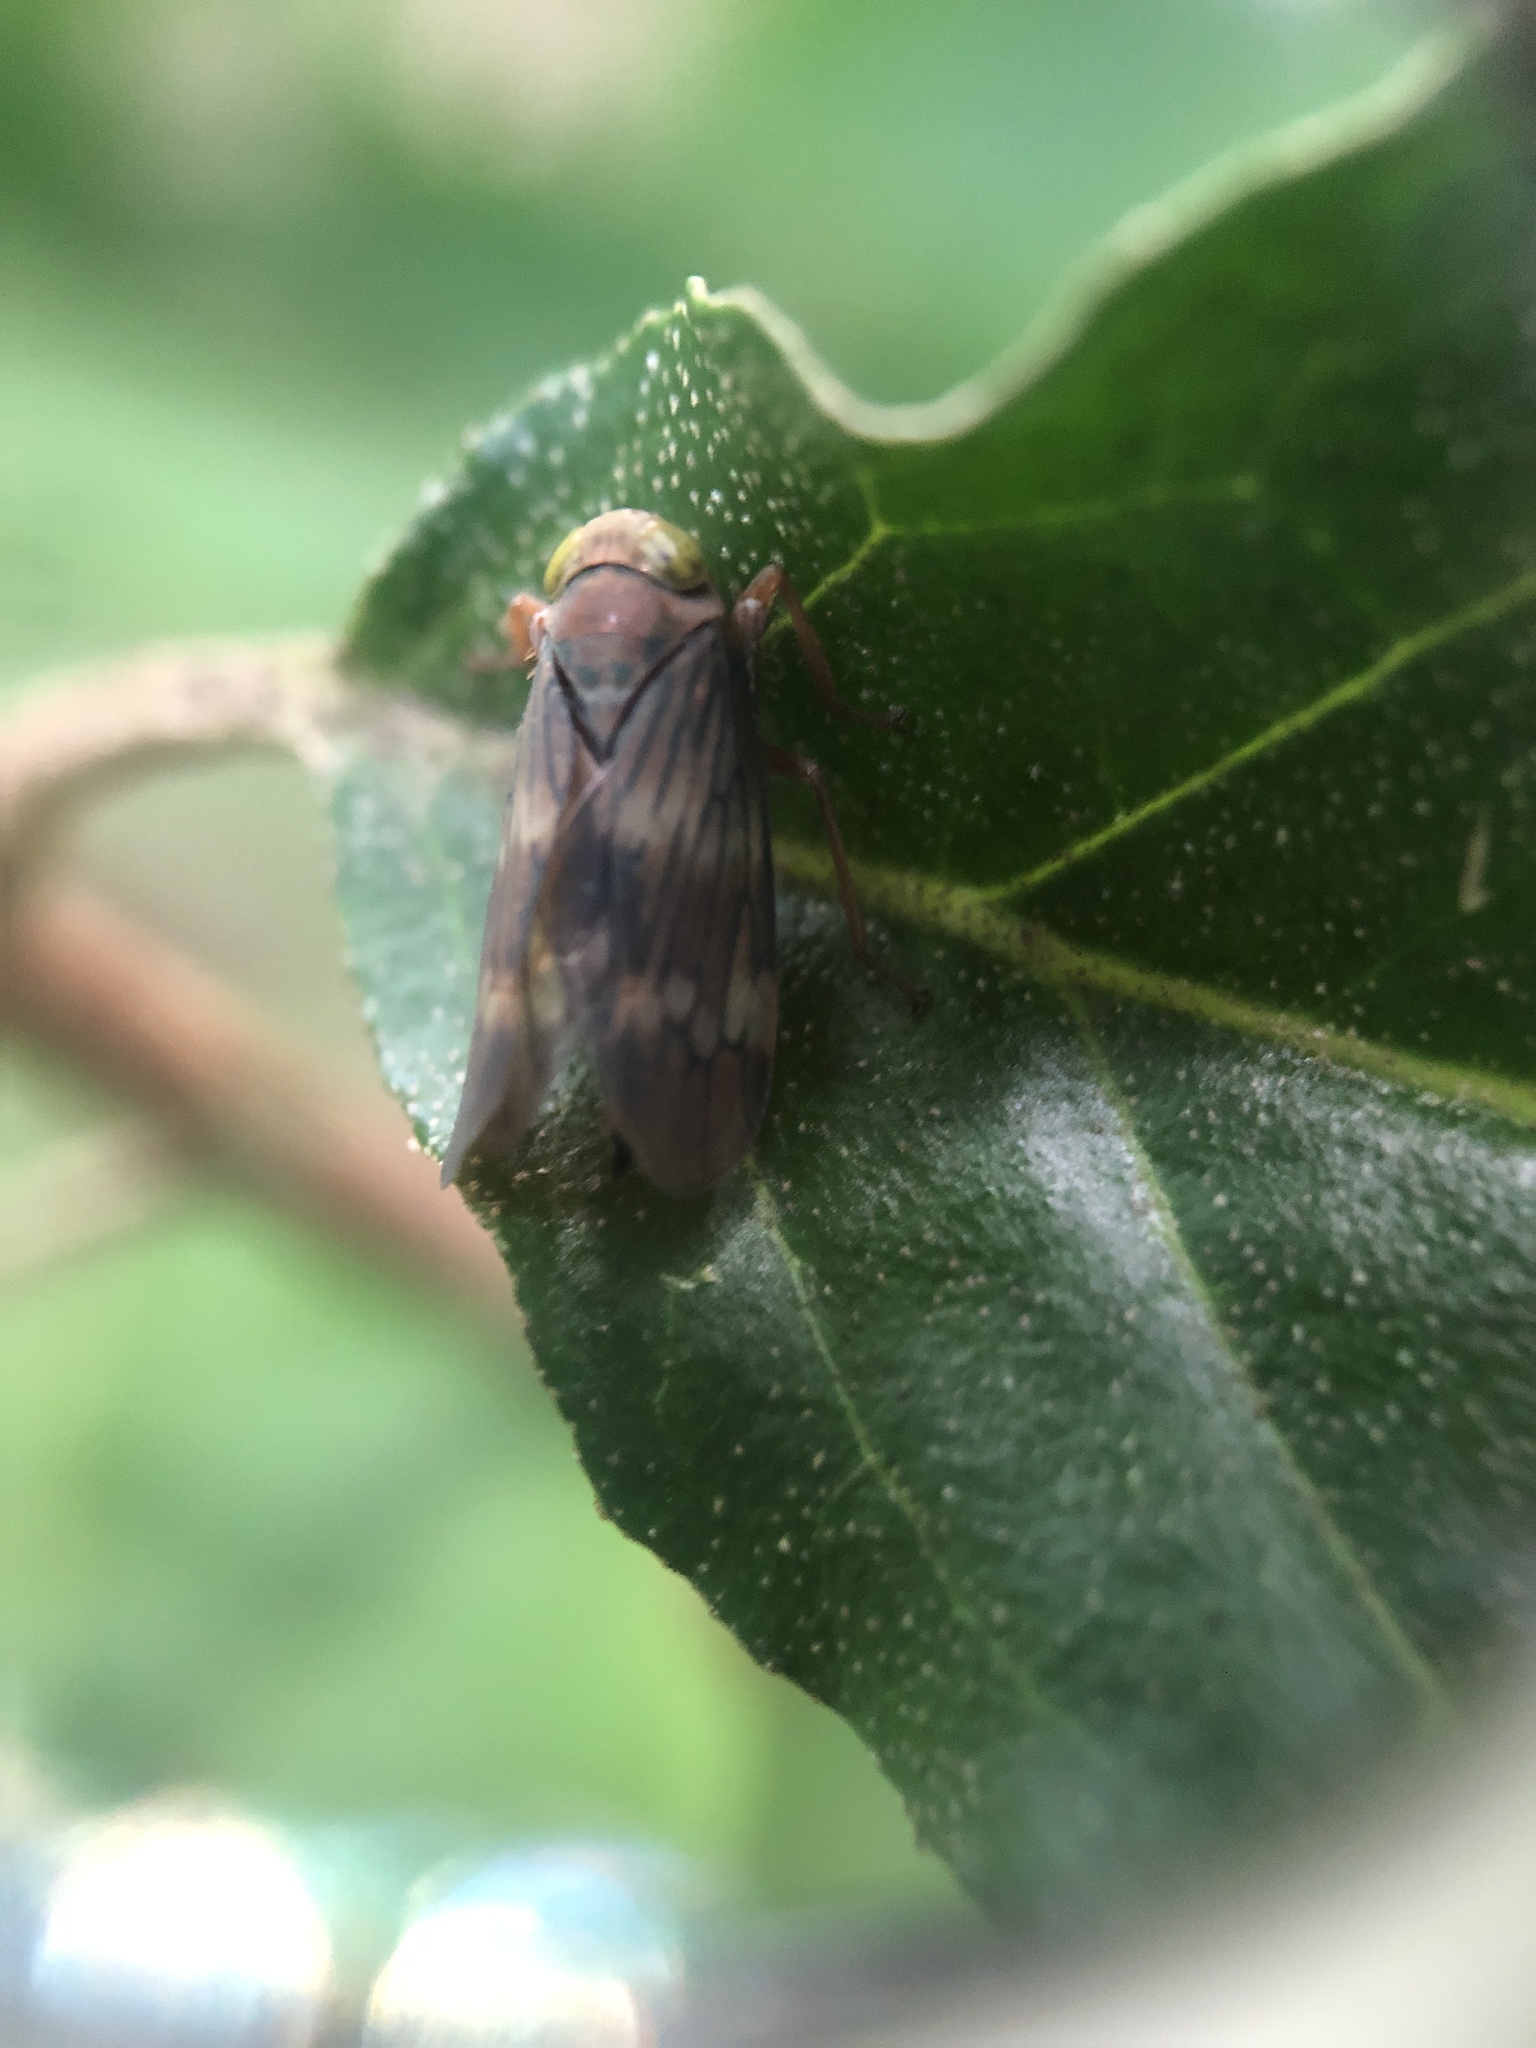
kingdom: Animalia
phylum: Arthropoda
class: Insecta
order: Hemiptera
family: Cicadellidae
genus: Jikradia
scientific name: Jikradia olitoria
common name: Coppery leafhopper
